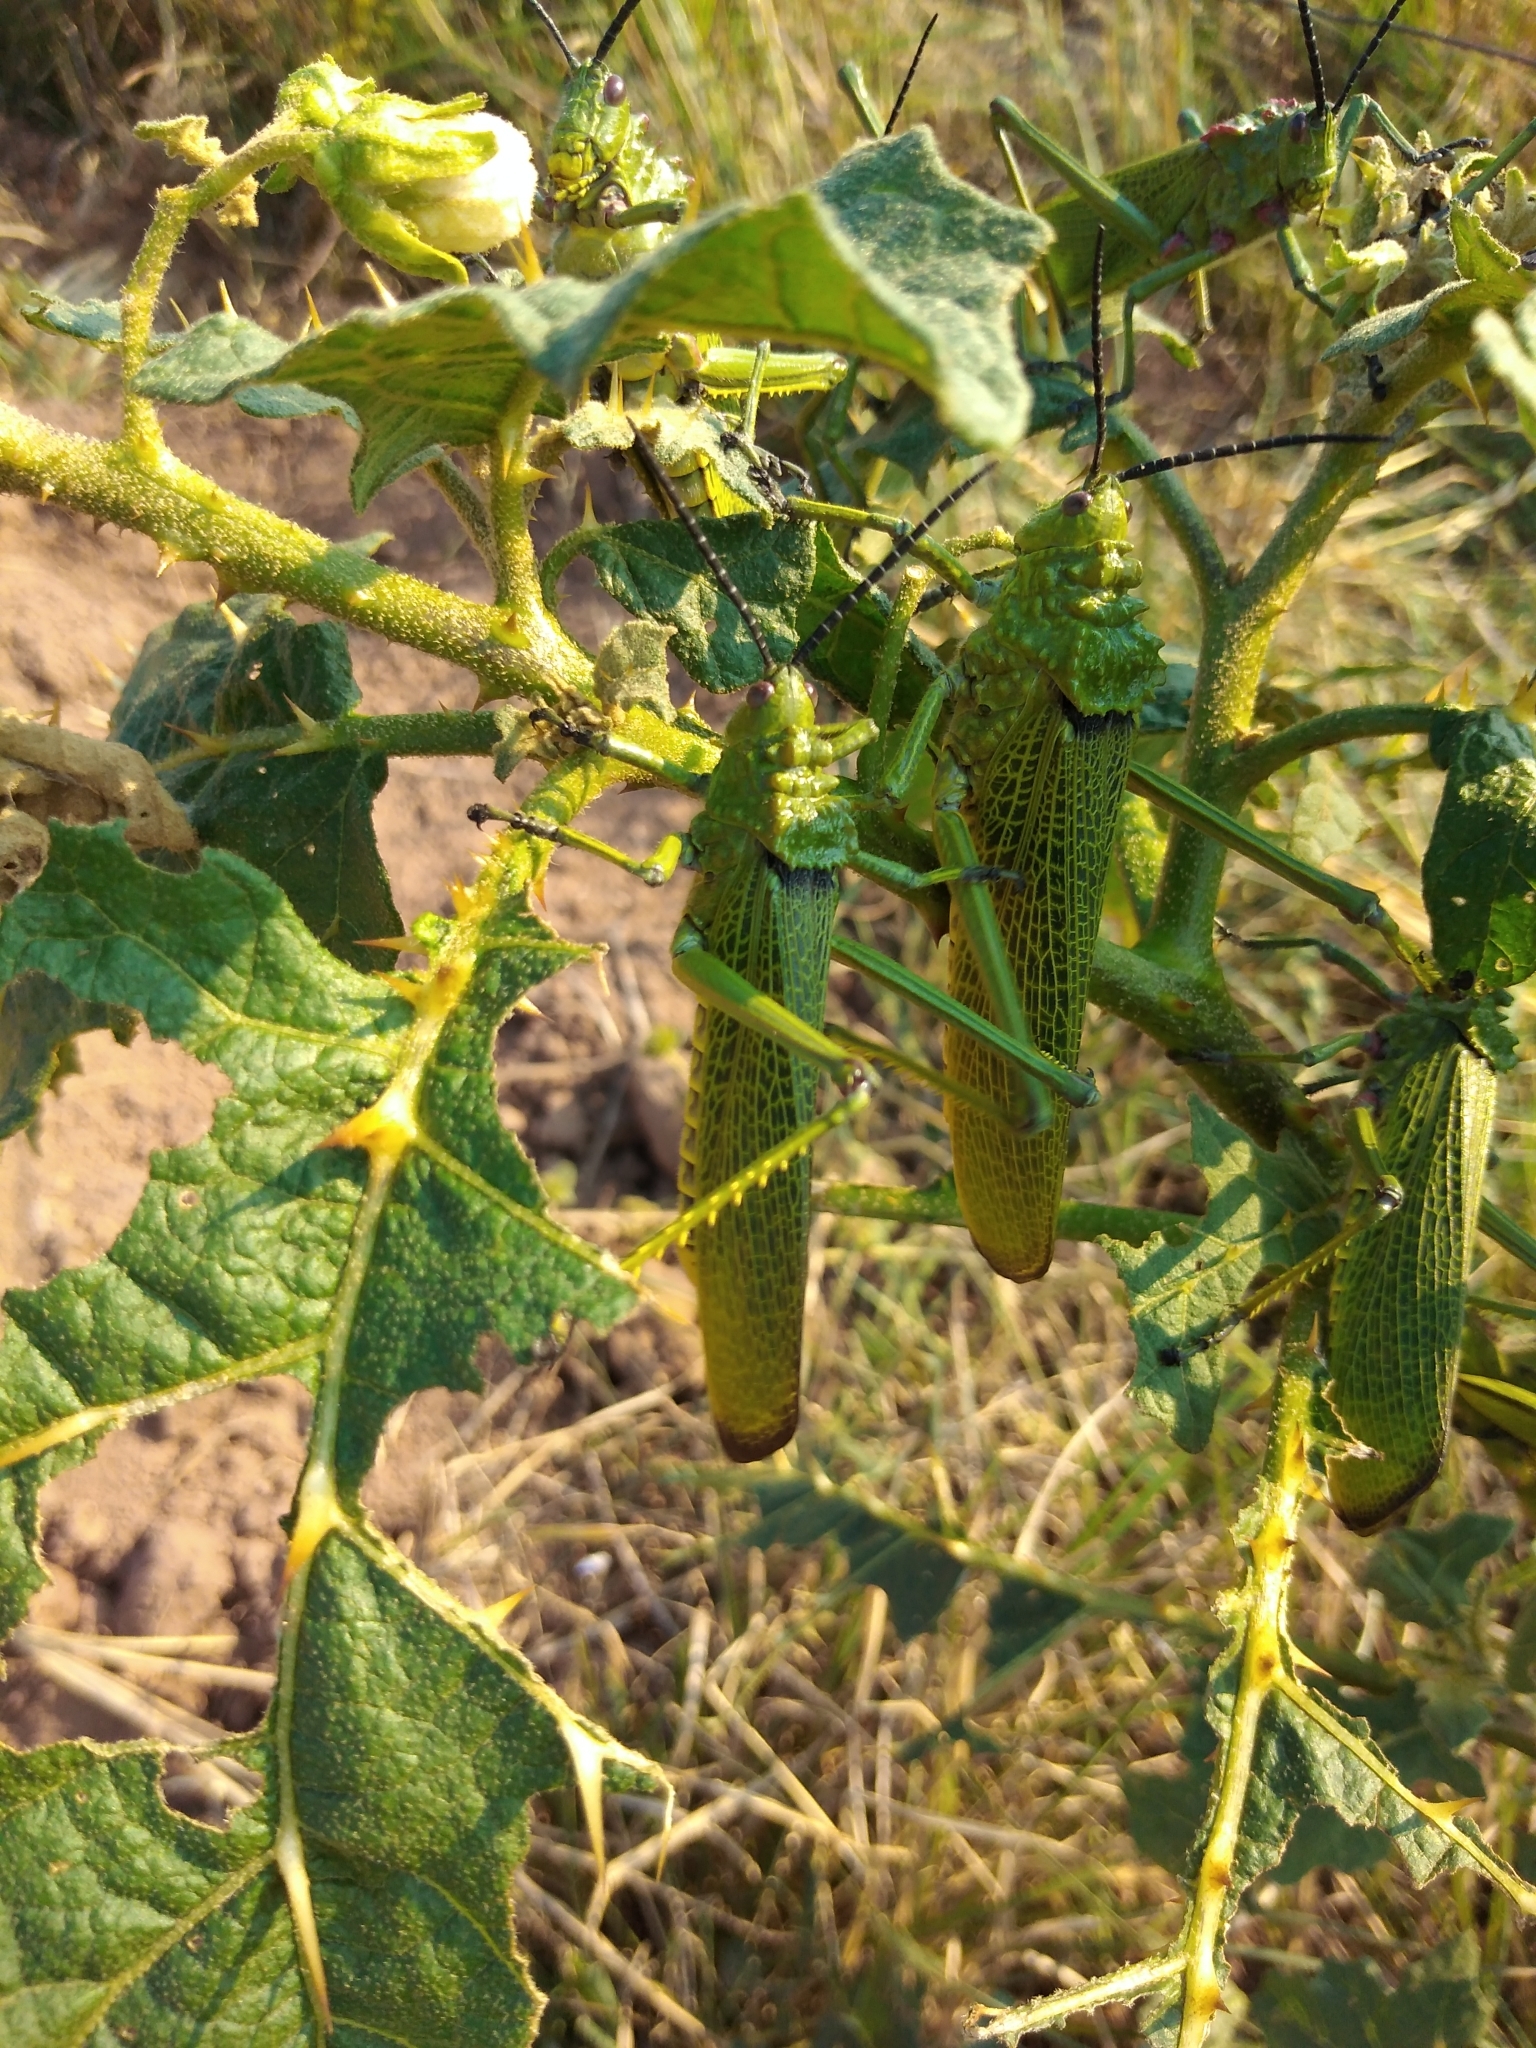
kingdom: Animalia
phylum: Arthropoda
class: Insecta
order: Orthoptera
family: Pyrgomorphidae
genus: Phymateus
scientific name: Phymateus viridipes
